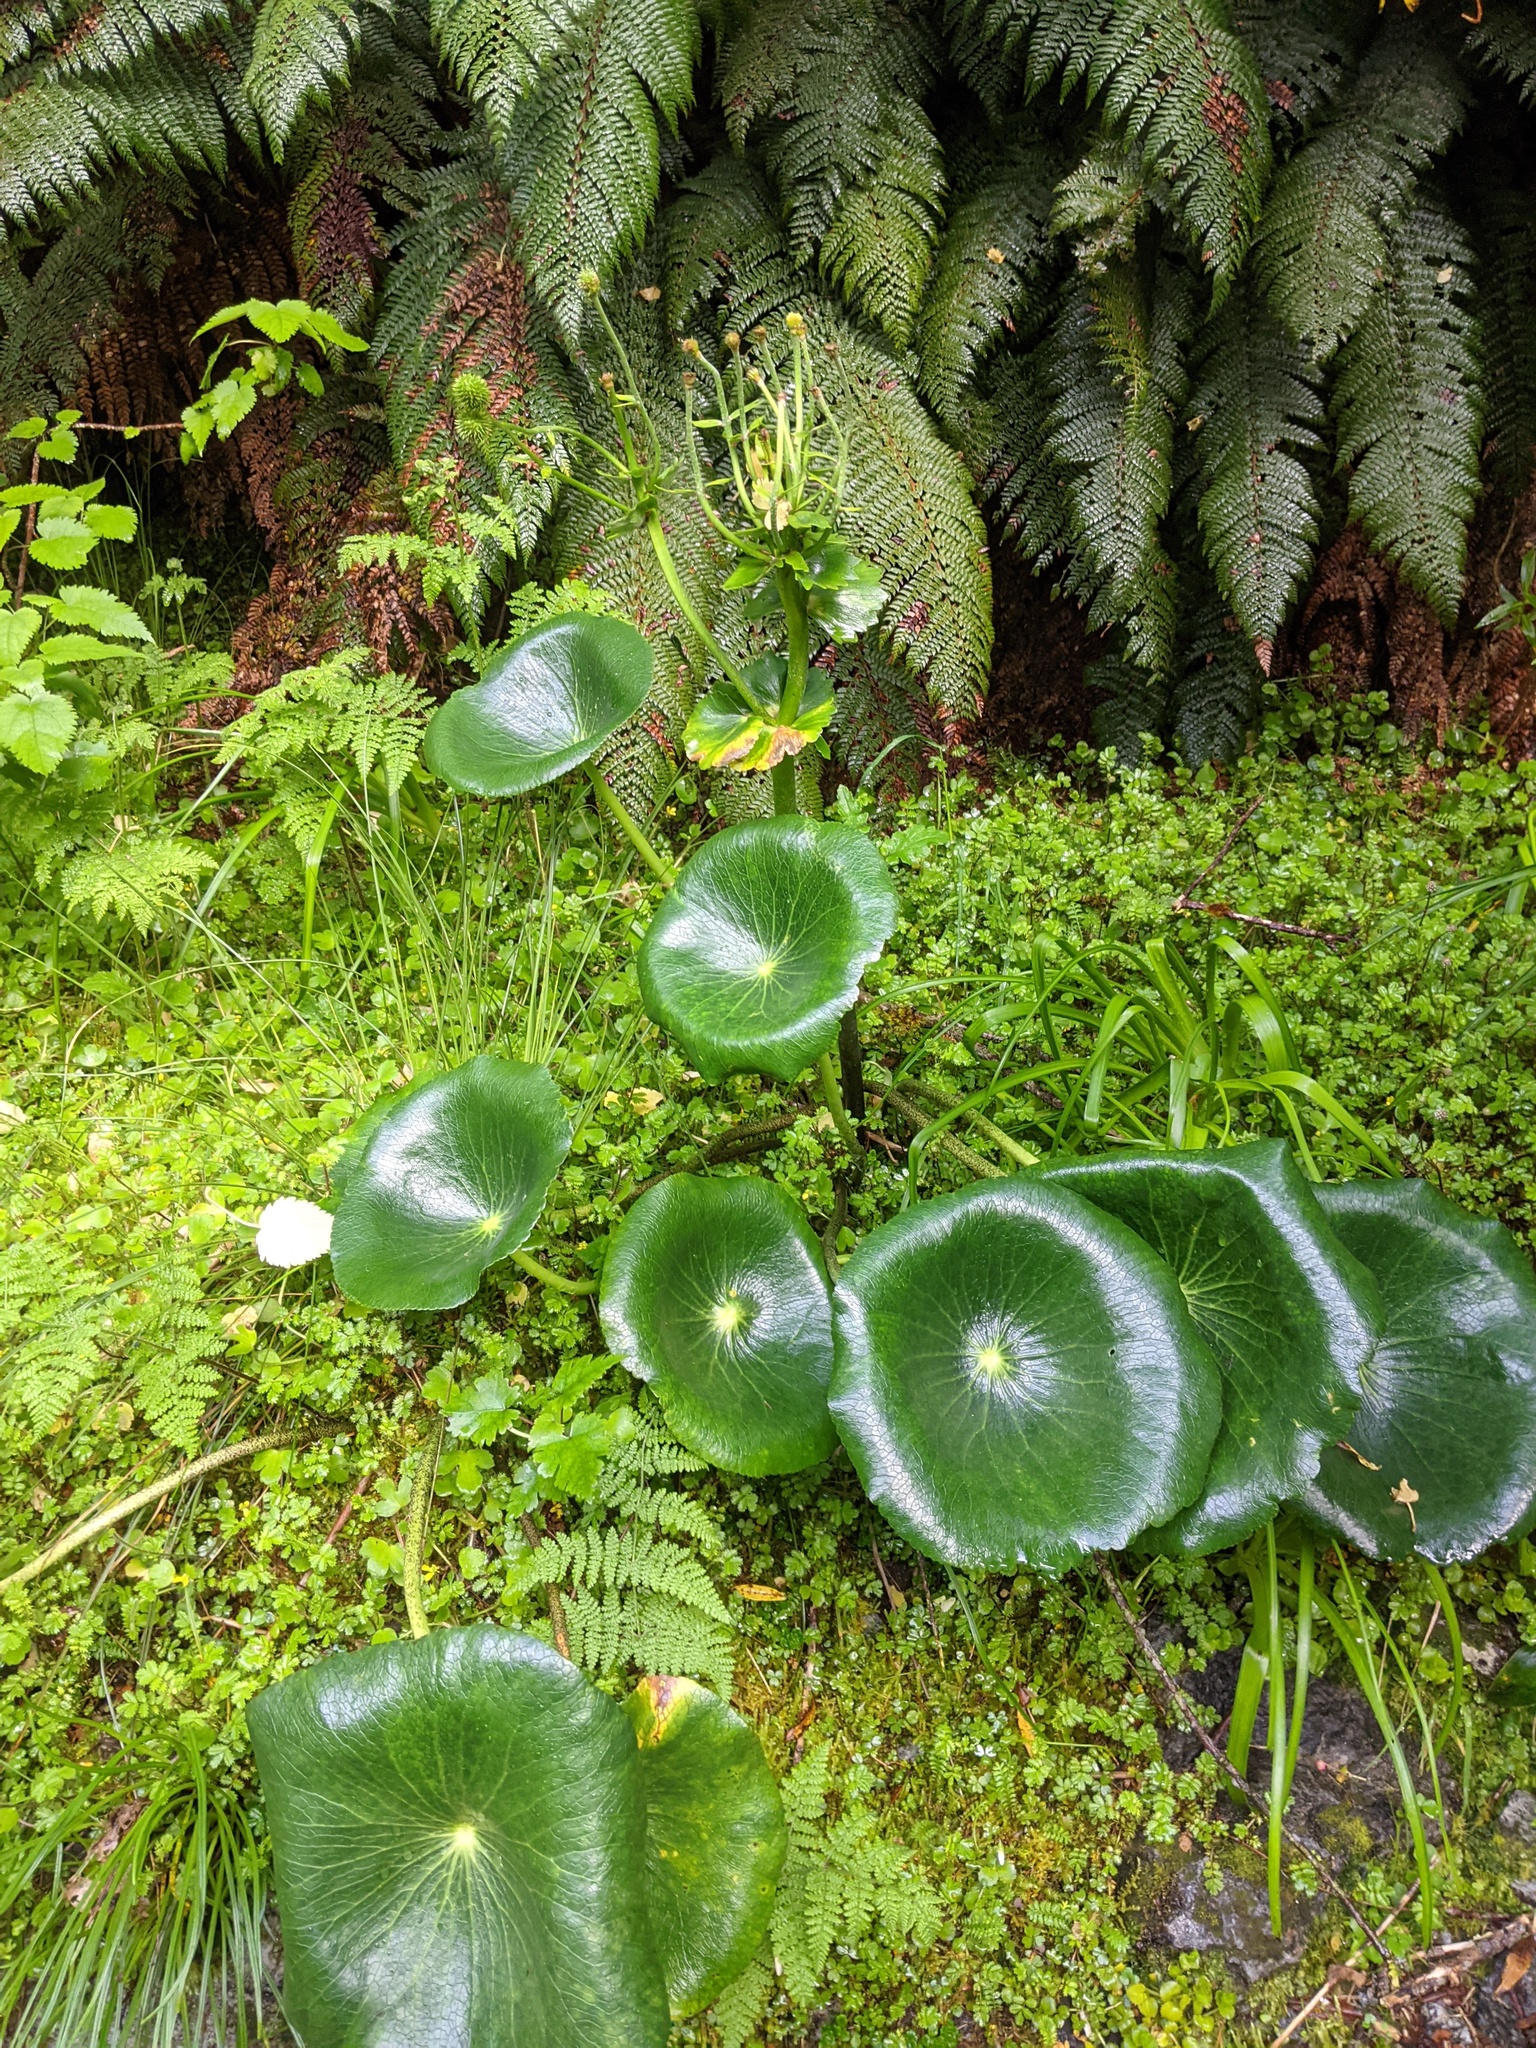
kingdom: Plantae
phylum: Tracheophyta
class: Magnoliopsida
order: Ranunculales
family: Ranunculaceae
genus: Ranunculus
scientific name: Ranunculus lyallii
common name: Mountain-lily
